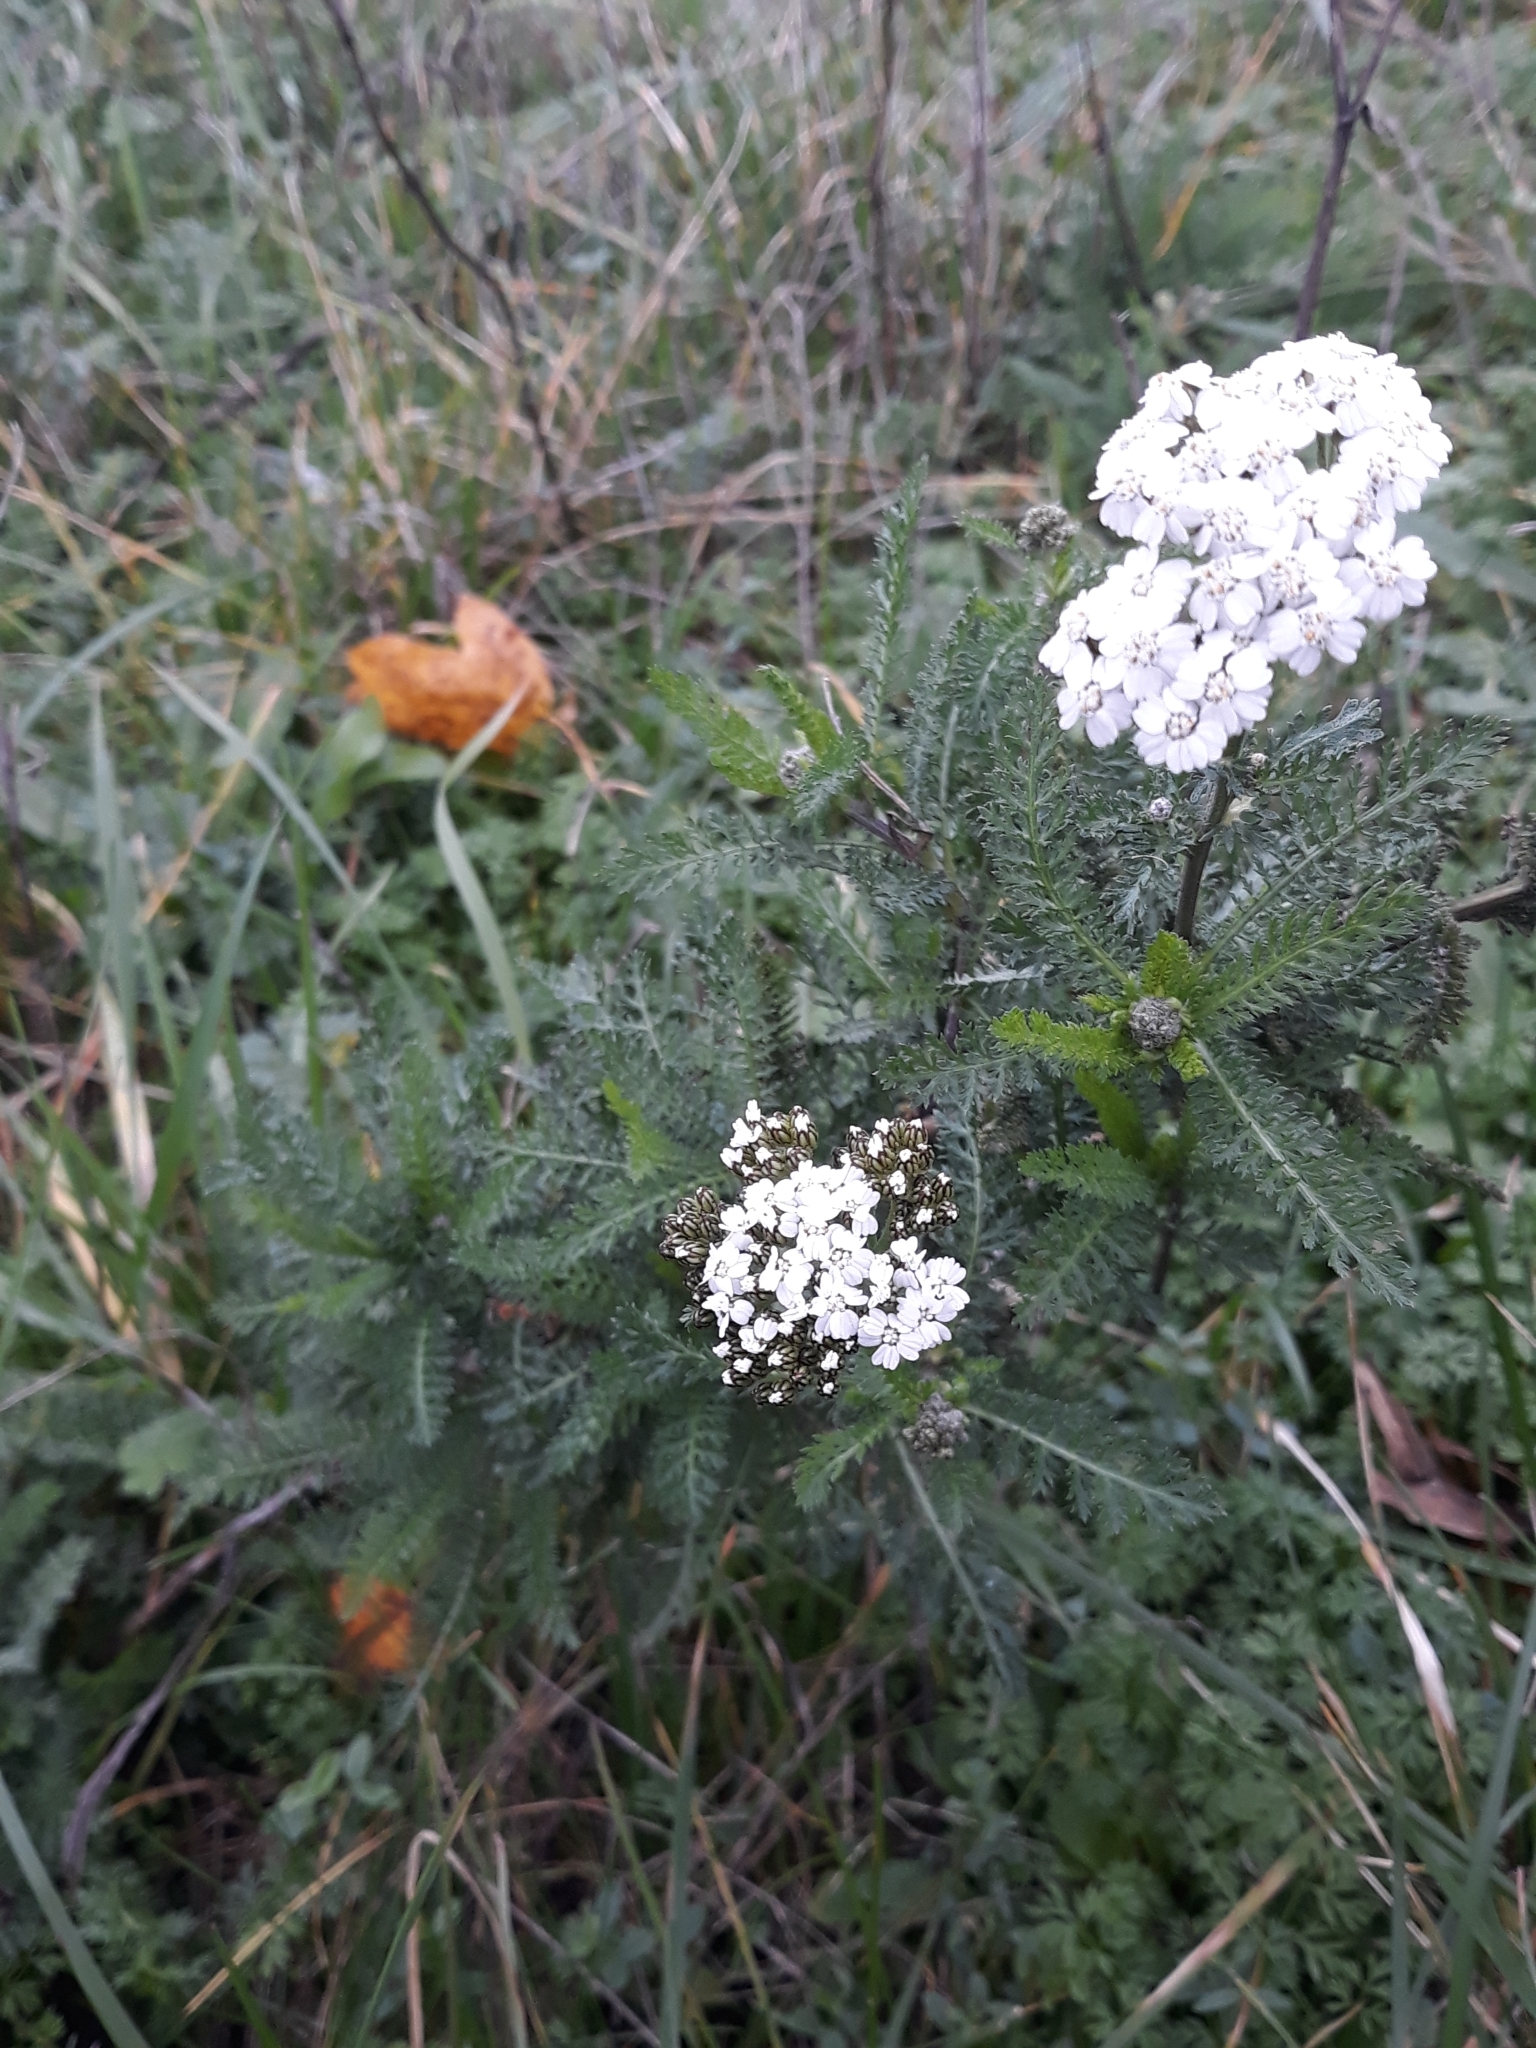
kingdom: Plantae
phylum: Tracheophyta
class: Magnoliopsida
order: Asterales
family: Asteraceae
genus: Achillea
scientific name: Achillea millefolium
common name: Yarrow
